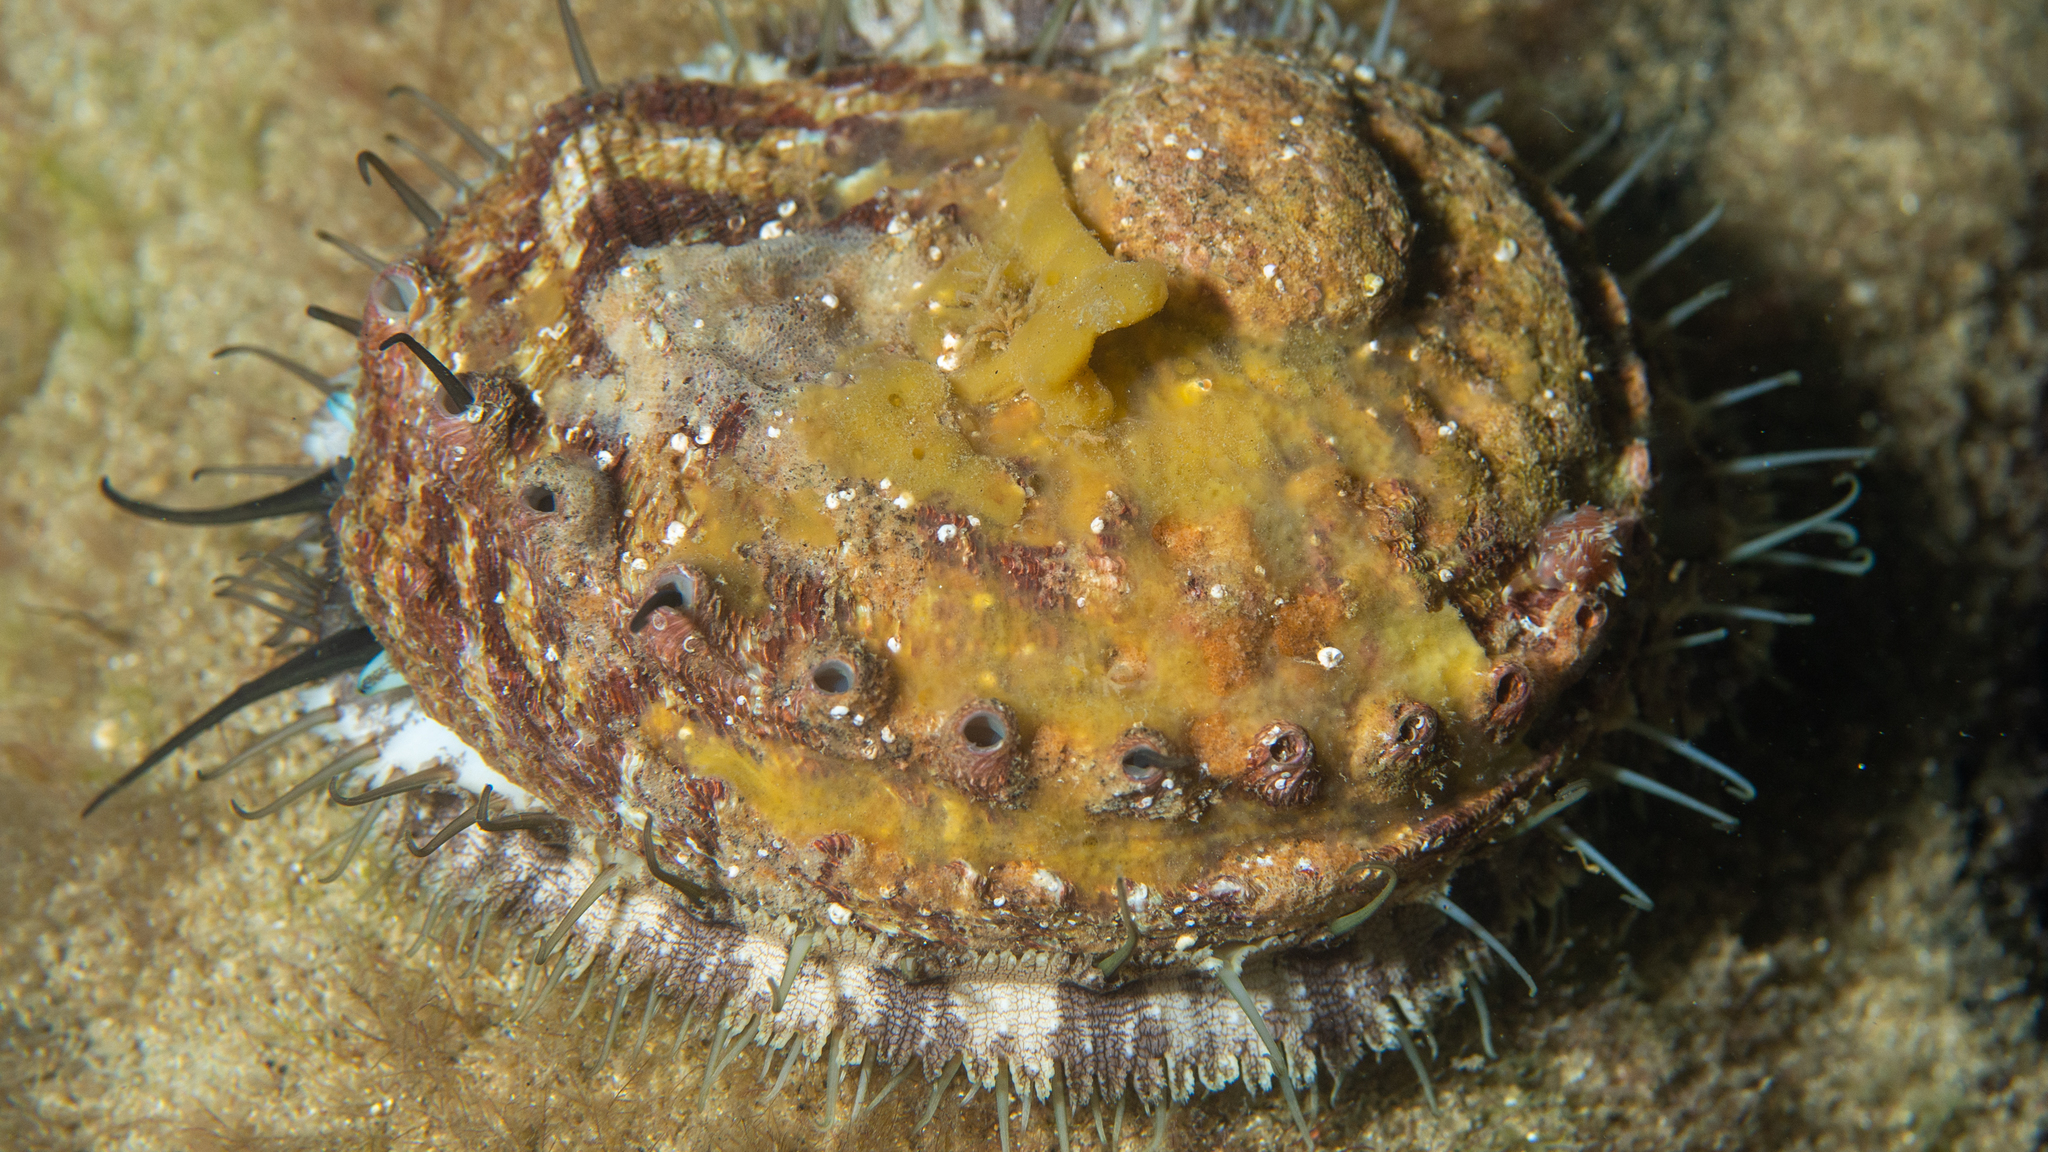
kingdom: Animalia
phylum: Mollusca
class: Gastropoda
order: Lepetellida
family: Haliotidae
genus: Haliotis
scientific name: Haliotis scalaris
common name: Staircase abalone
